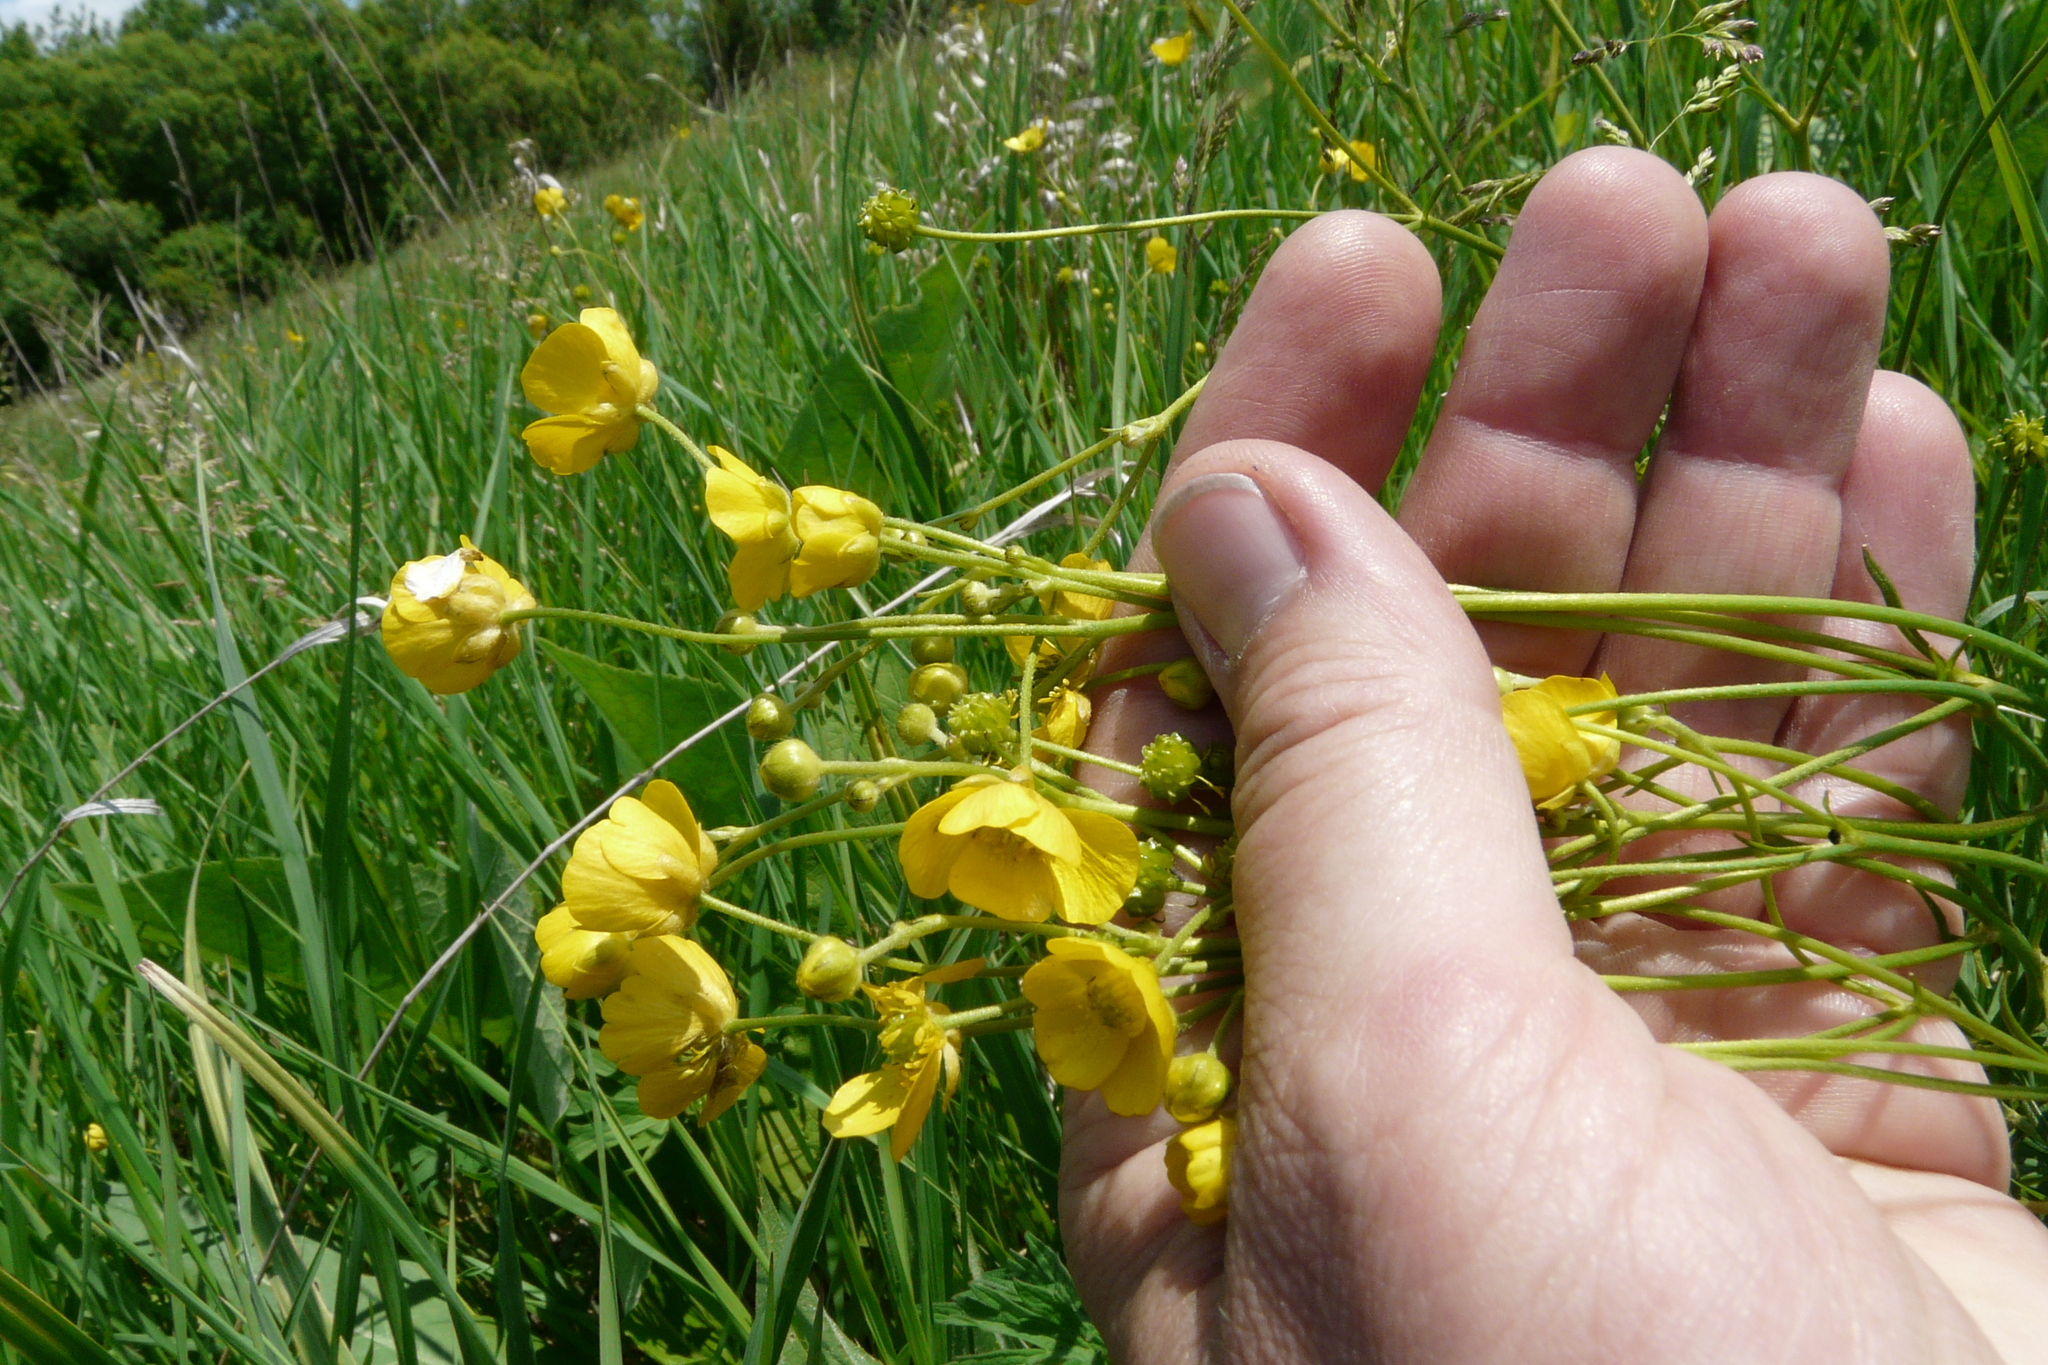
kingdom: Plantae
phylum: Tracheophyta
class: Magnoliopsida
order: Ranunculales
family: Ranunculaceae
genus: Ranunculus
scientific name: Ranunculus acris
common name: Meadow buttercup
